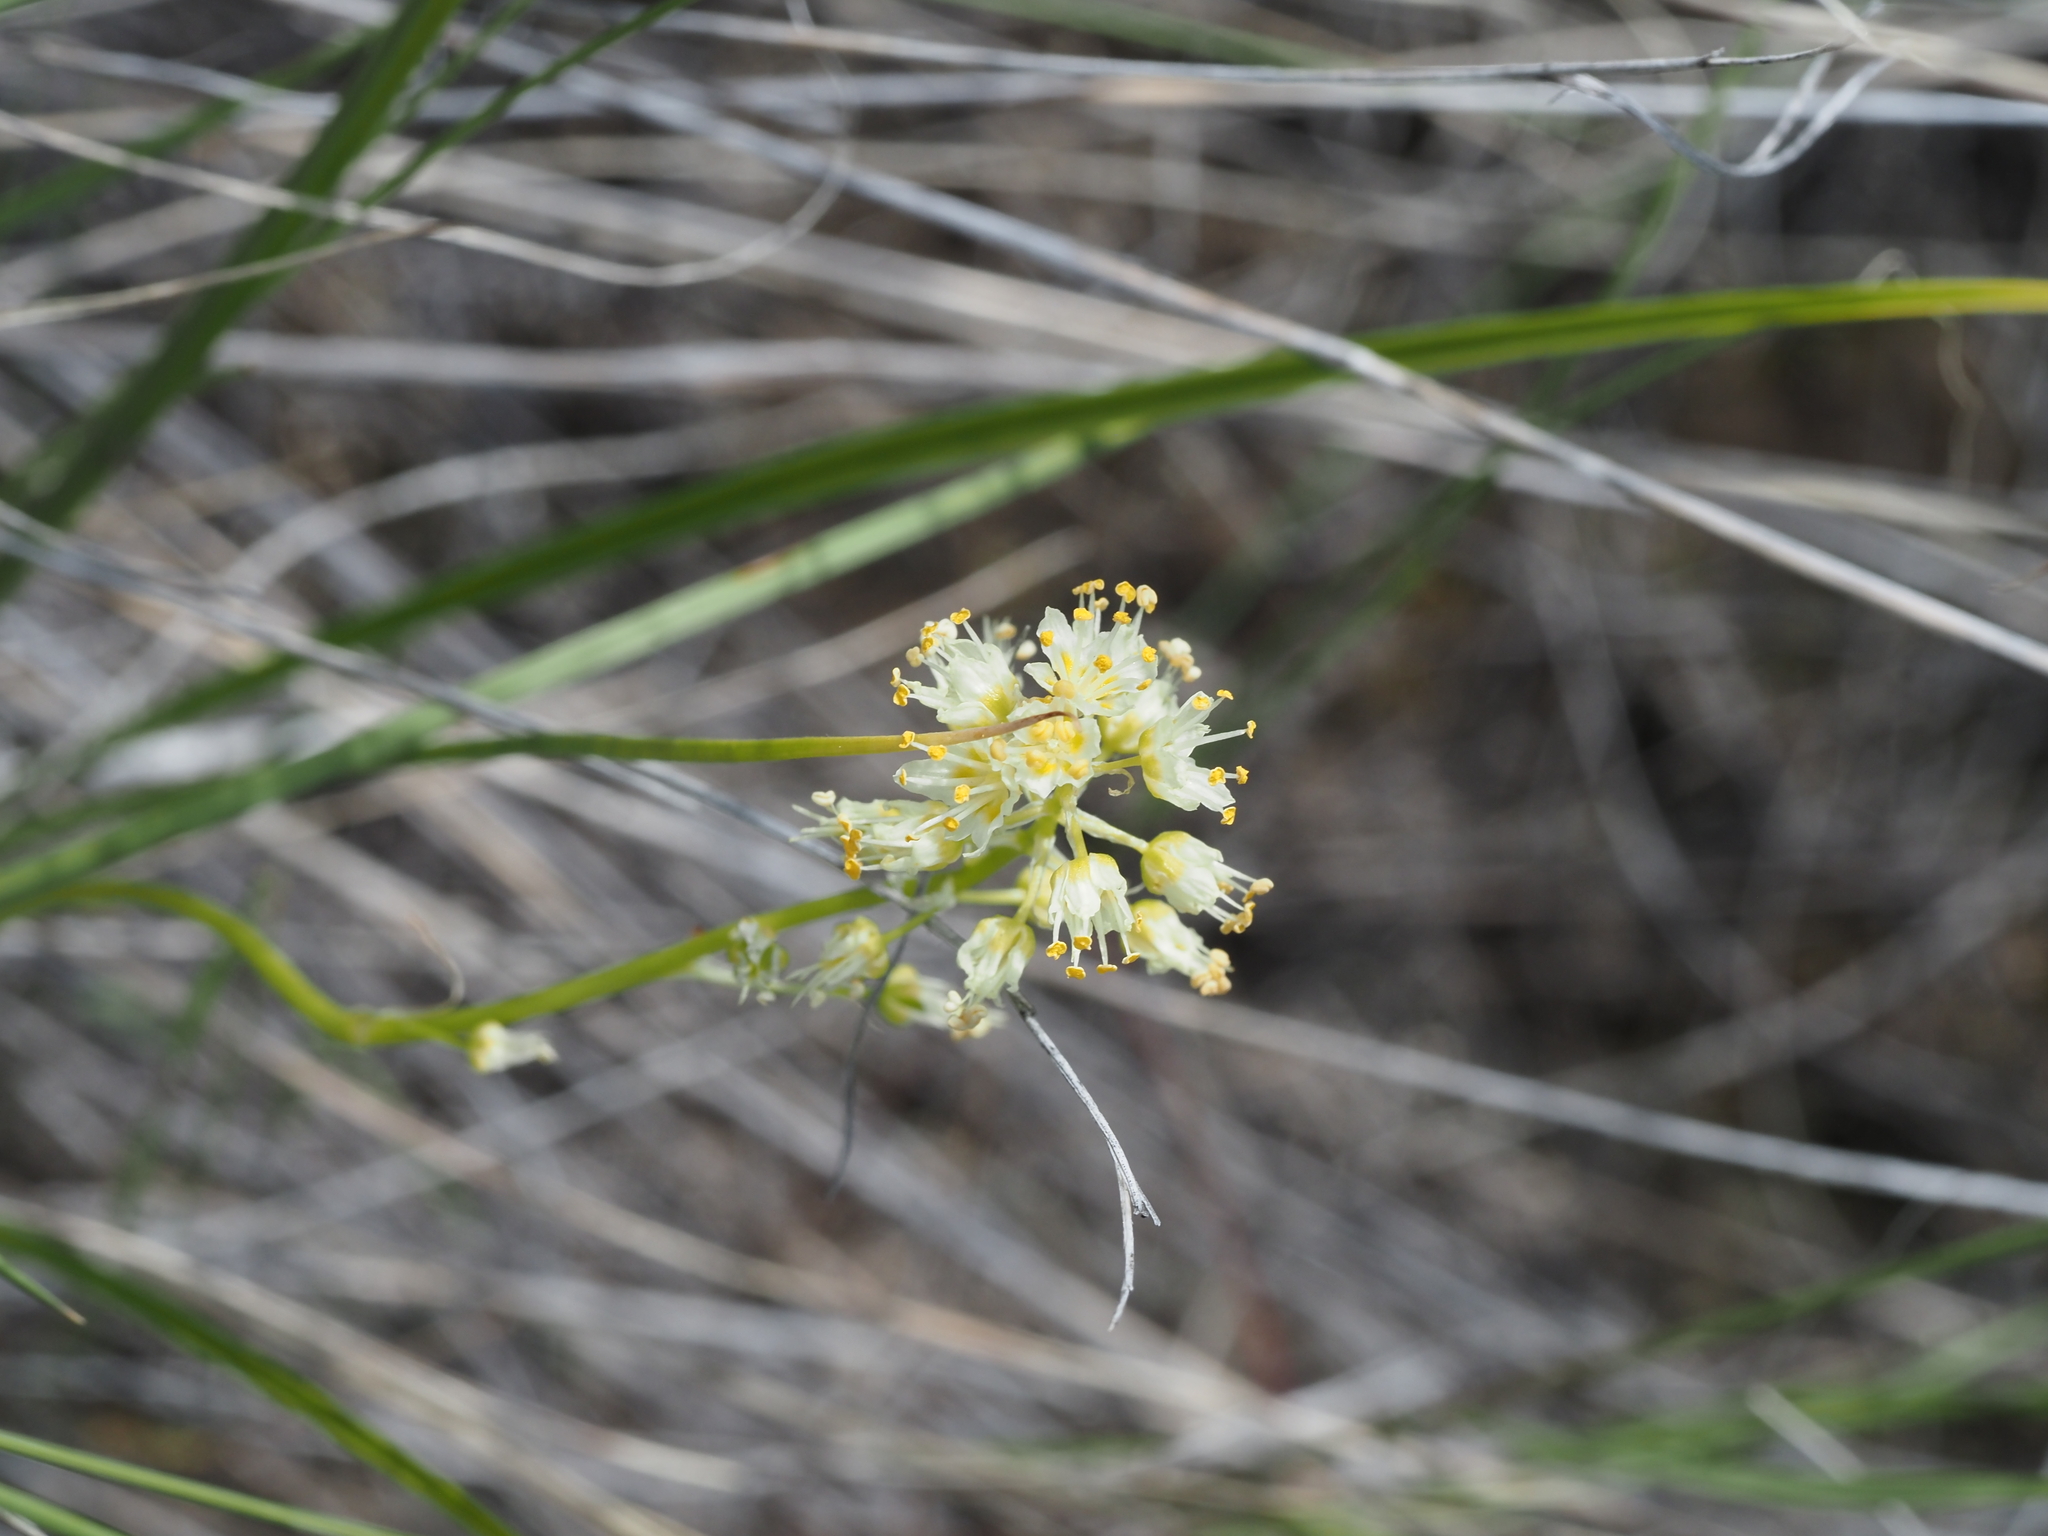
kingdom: Plantae
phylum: Tracheophyta
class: Liliopsida
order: Liliales
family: Melanthiaceae
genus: Toxicoscordion
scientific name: Toxicoscordion venenosum
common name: Meadow death camas
